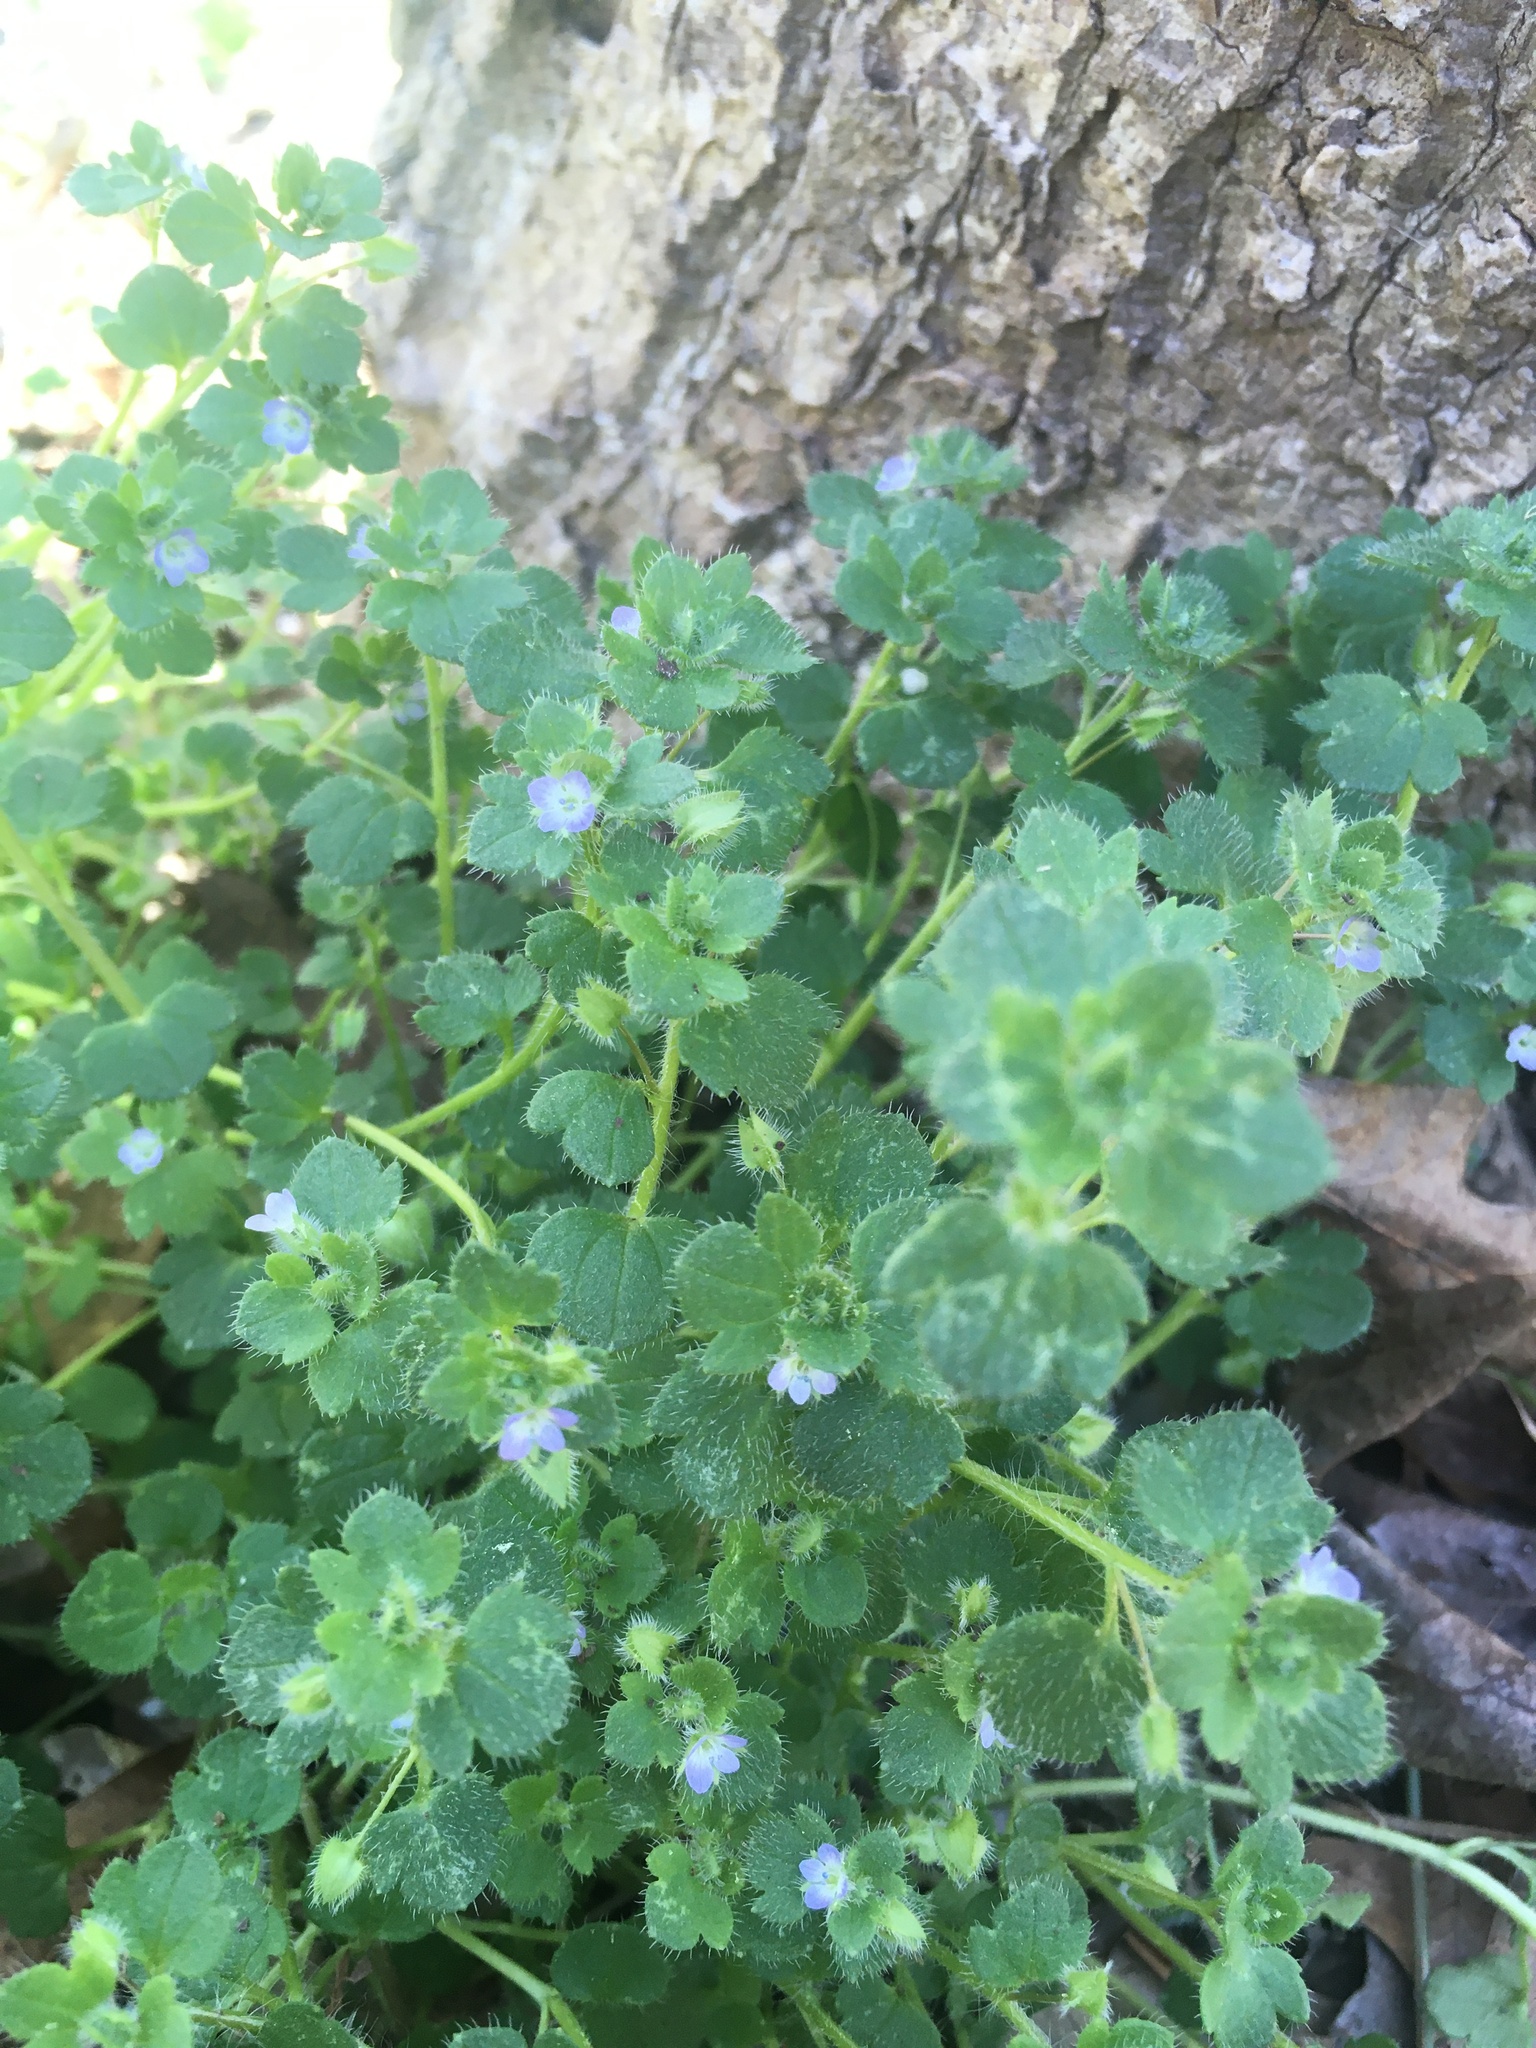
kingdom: Plantae
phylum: Tracheophyta
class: Magnoliopsida
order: Lamiales
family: Plantaginaceae
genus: Veronica
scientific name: Veronica hederifolia
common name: Ivy-leaved speedwell
